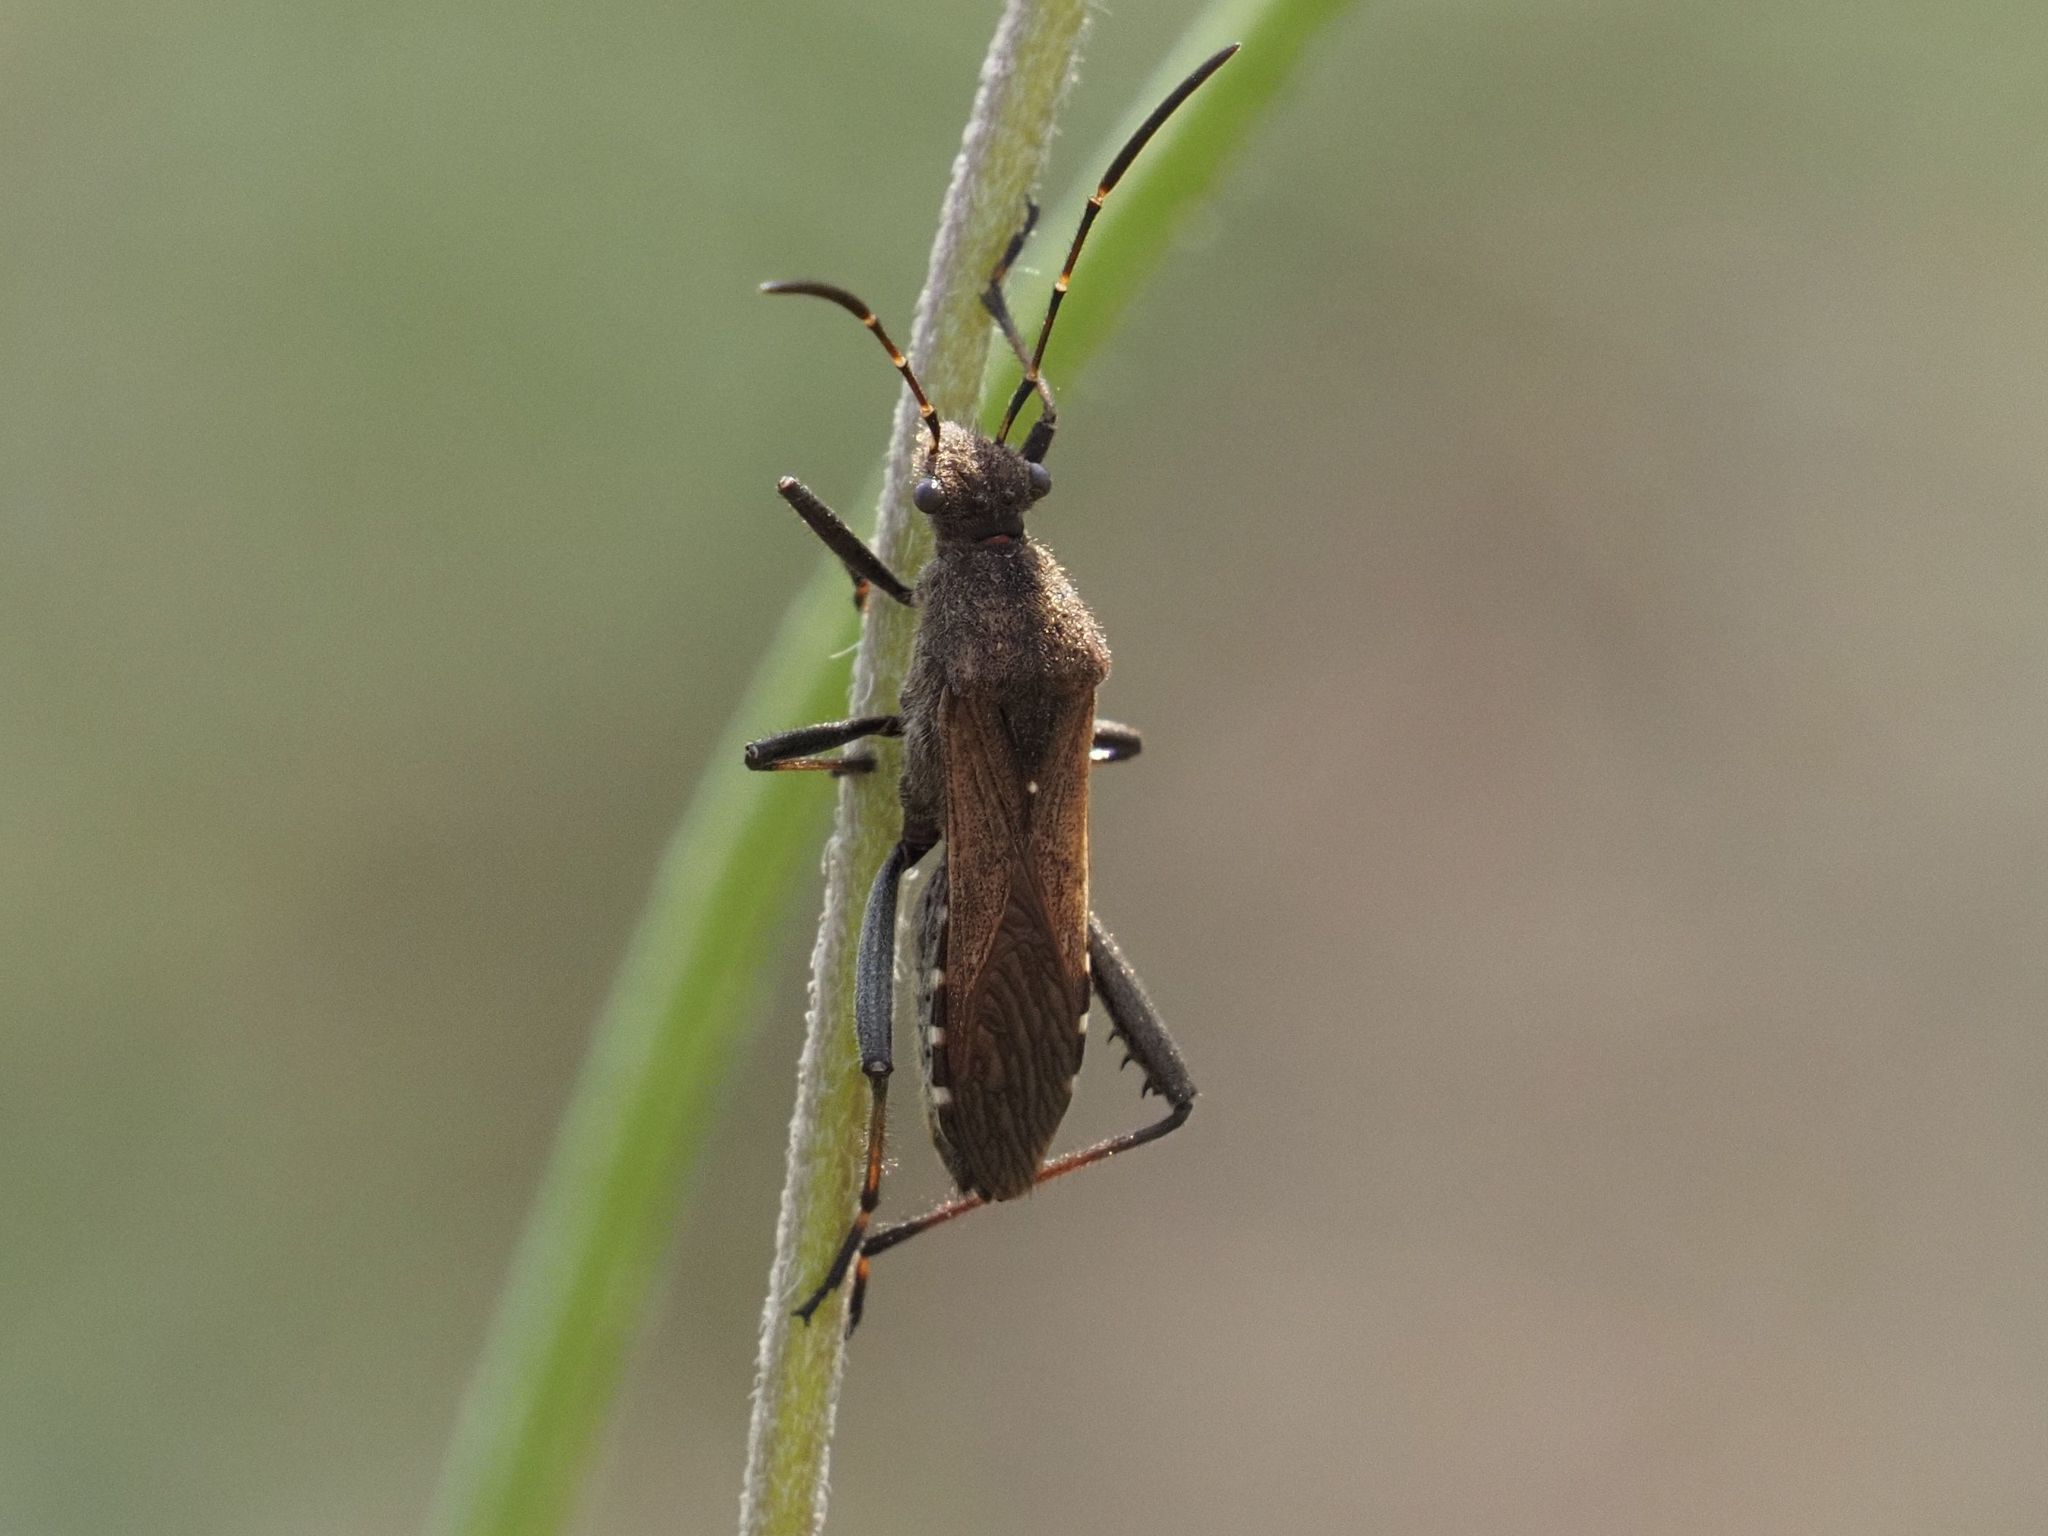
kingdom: Animalia
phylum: Arthropoda
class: Insecta
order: Hemiptera
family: Alydidae
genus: Alydus
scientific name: Alydus calcaratus
